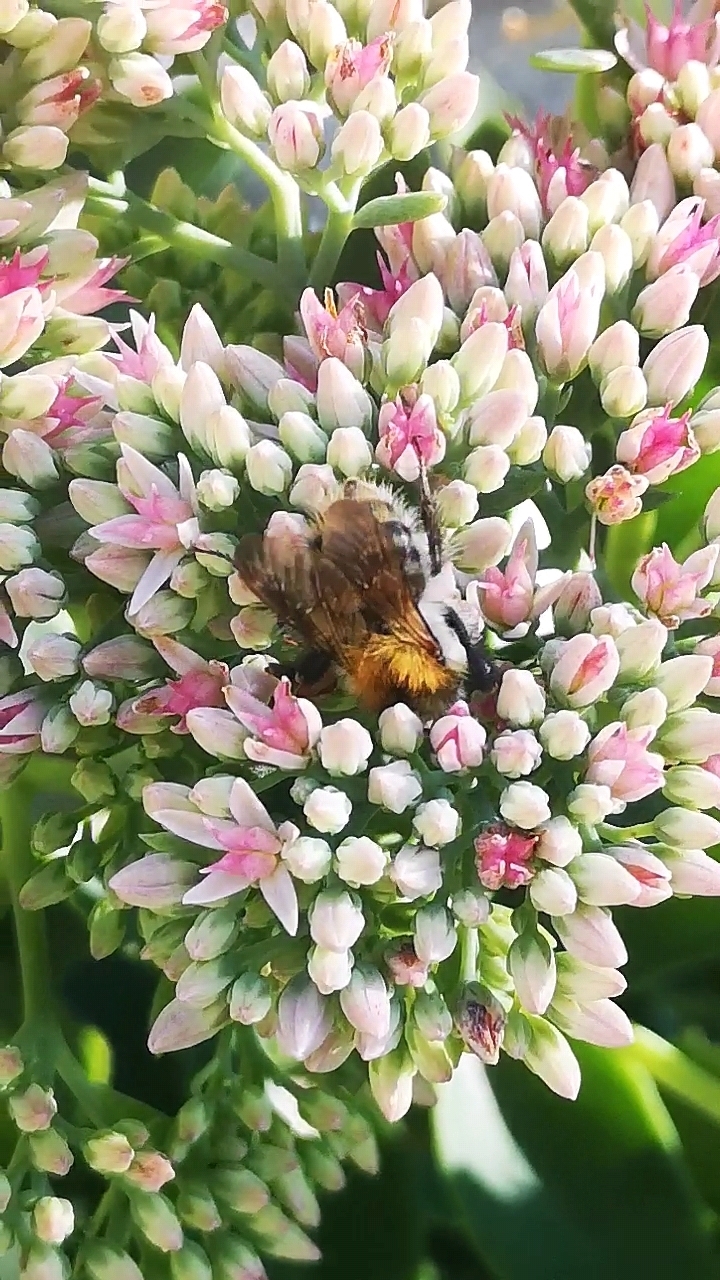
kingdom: Animalia
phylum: Arthropoda
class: Insecta
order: Hymenoptera
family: Apidae
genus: Bombus
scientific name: Bombus pascuorum
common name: Common carder bee
